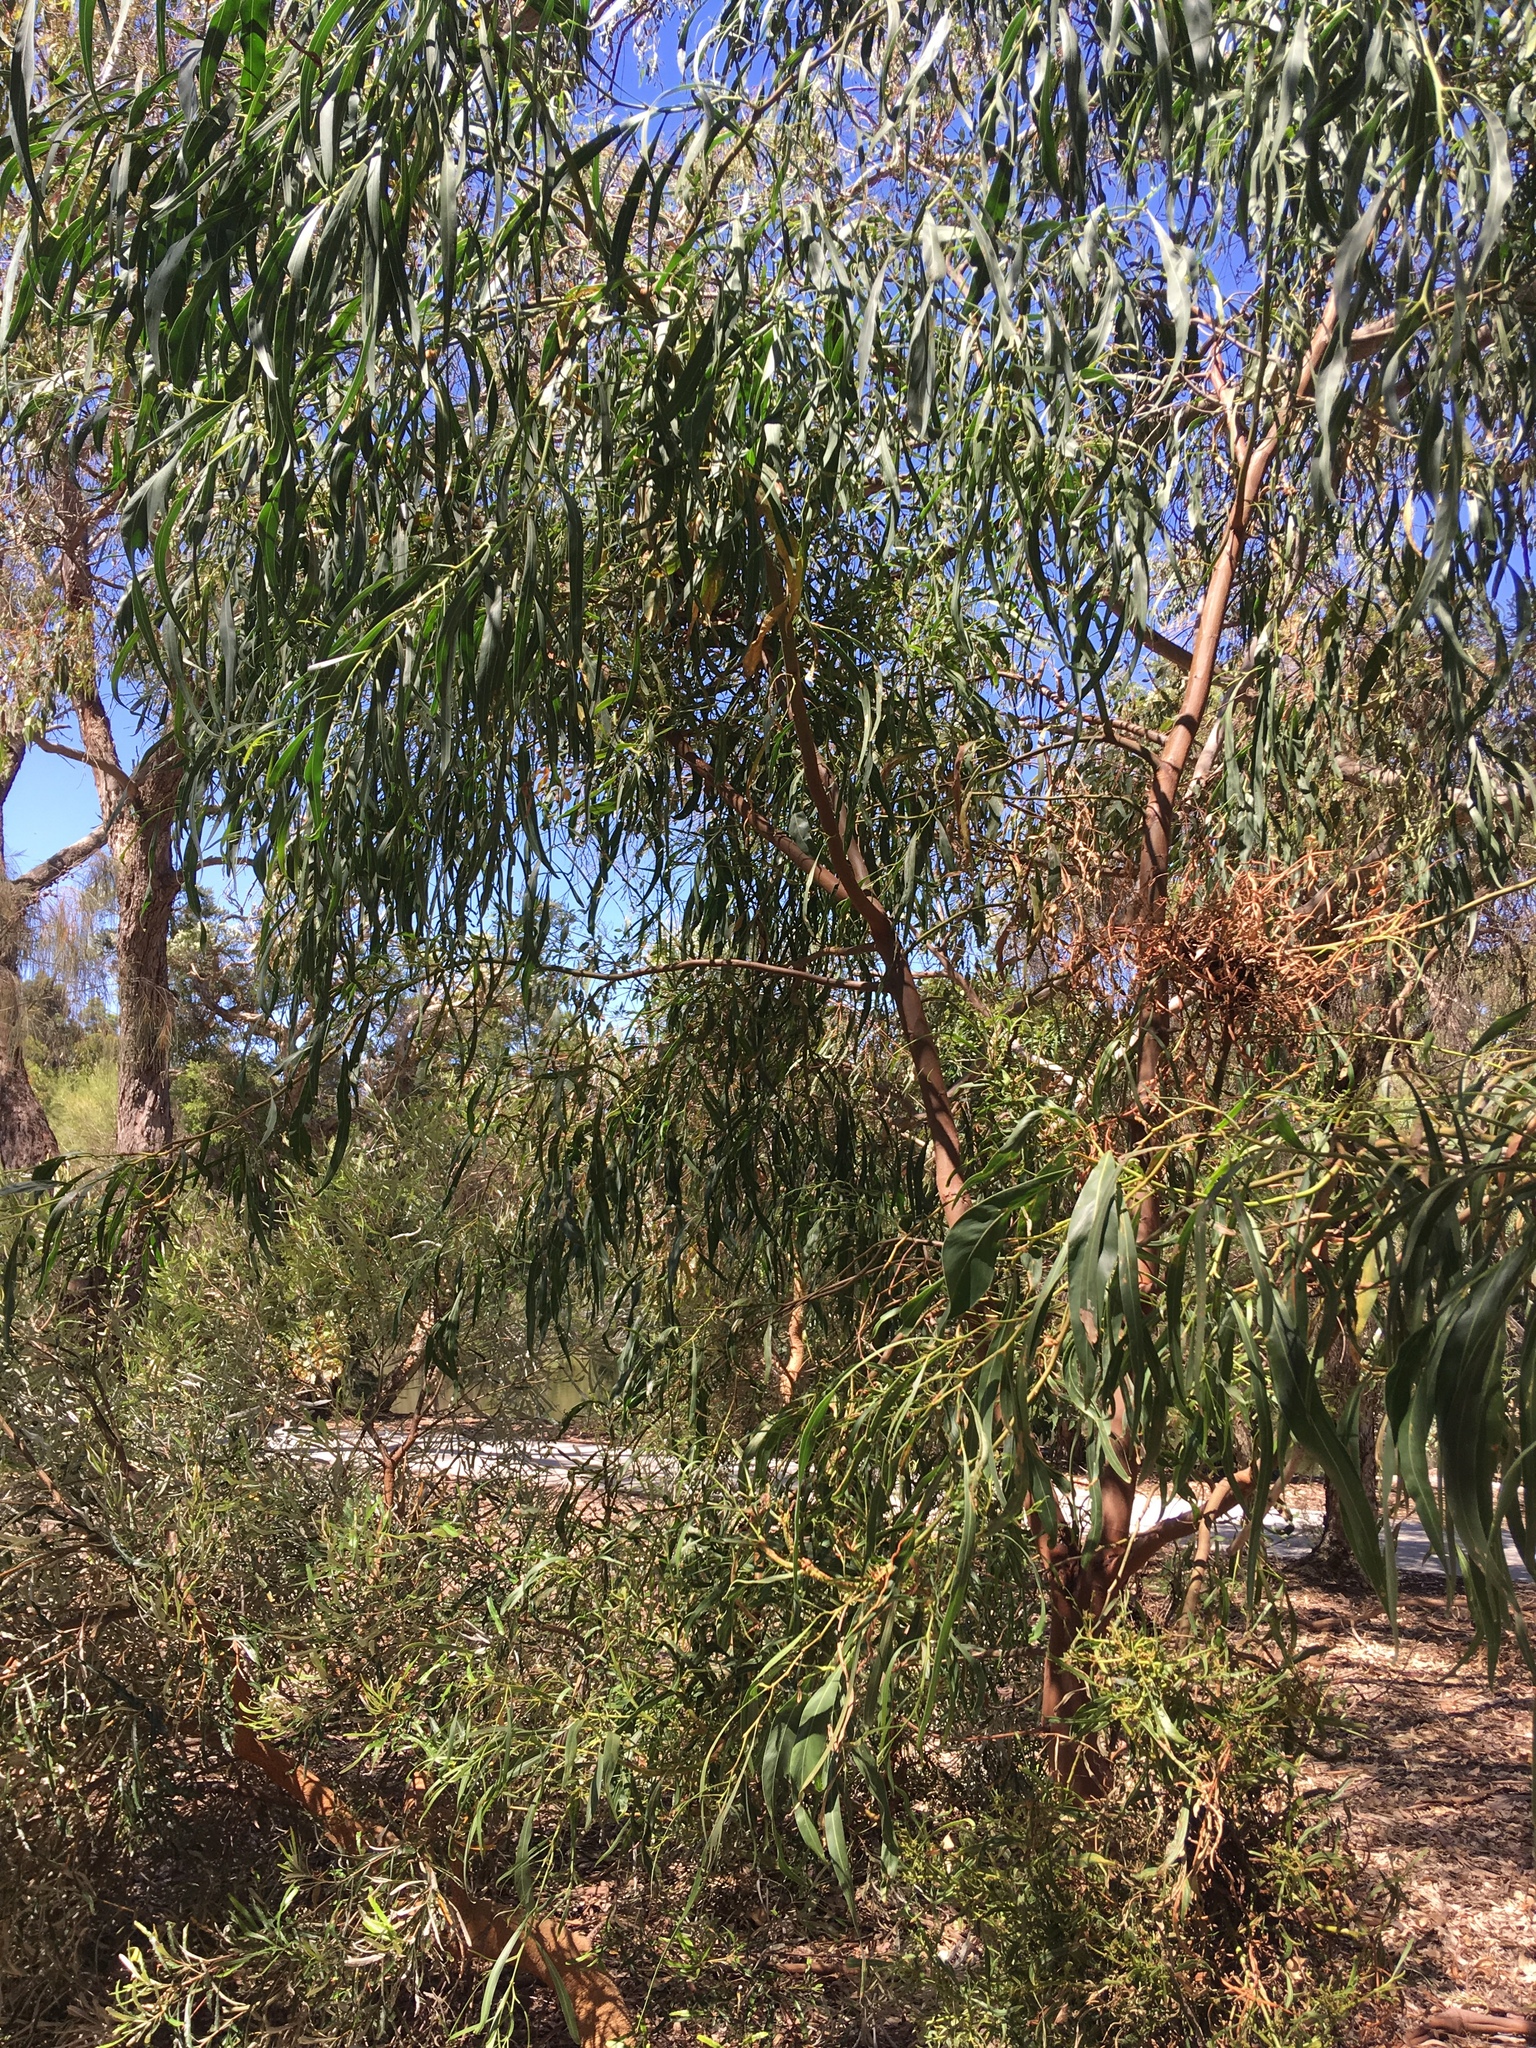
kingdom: Plantae
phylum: Tracheophyta
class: Magnoliopsida
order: Fabales
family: Fabaceae
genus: Acacia
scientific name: Acacia saligna
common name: Orange wattle
